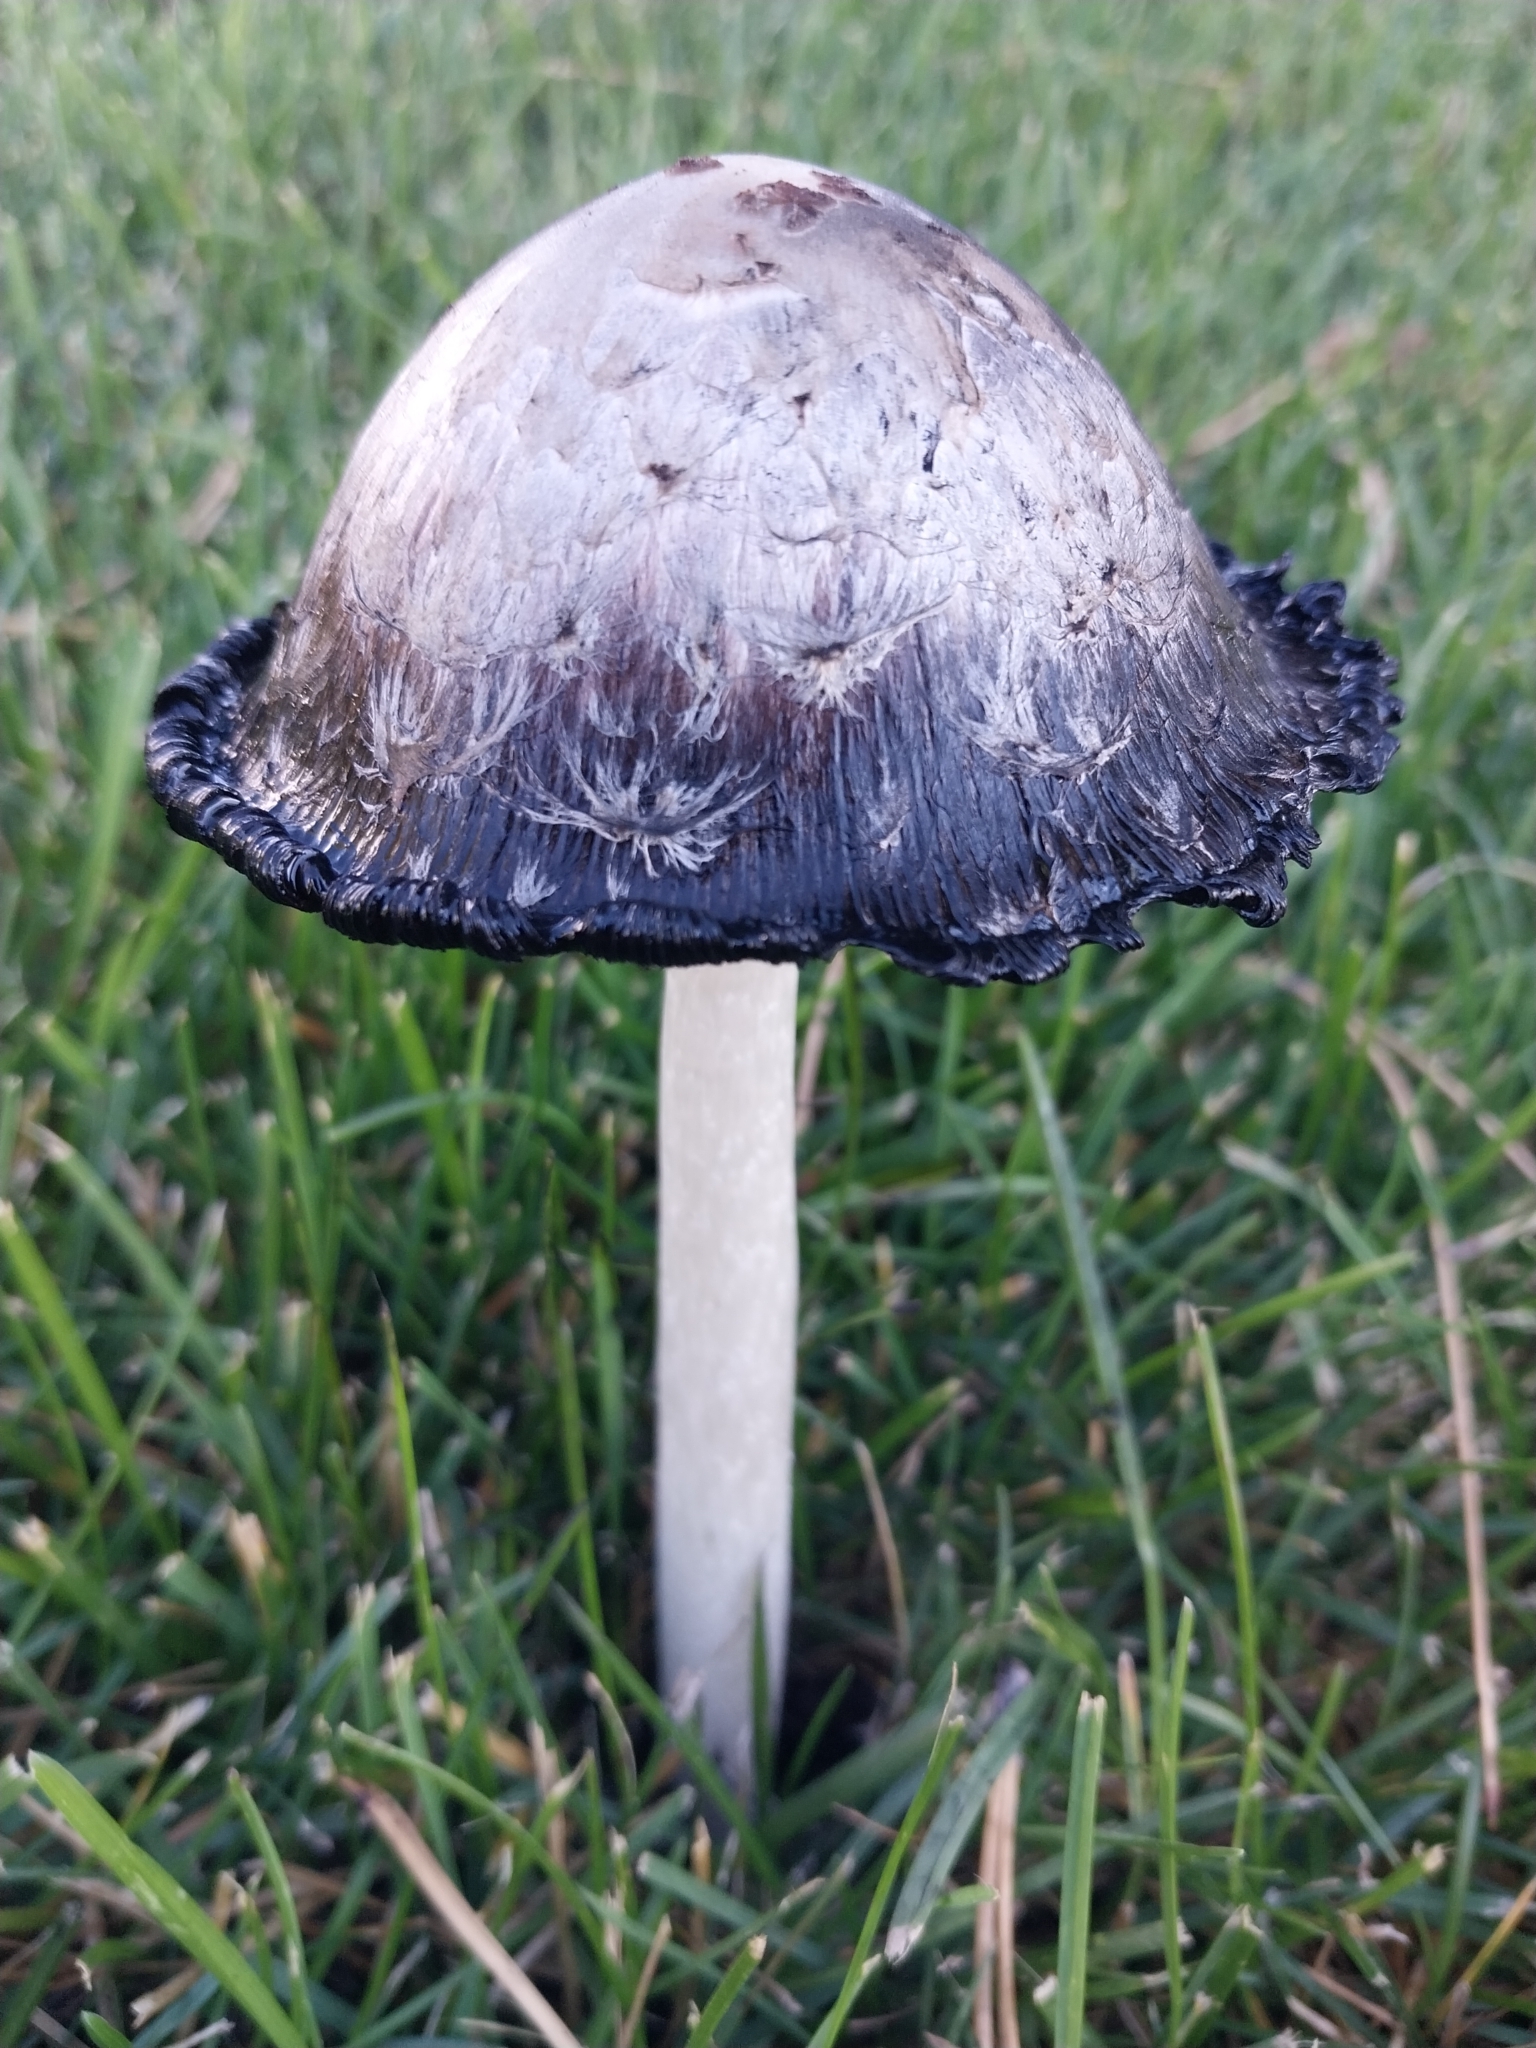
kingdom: Fungi
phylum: Basidiomycota
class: Agaricomycetes
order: Agaricales
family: Agaricaceae
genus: Coprinus
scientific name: Coprinus comatus
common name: Lawyer's wig
